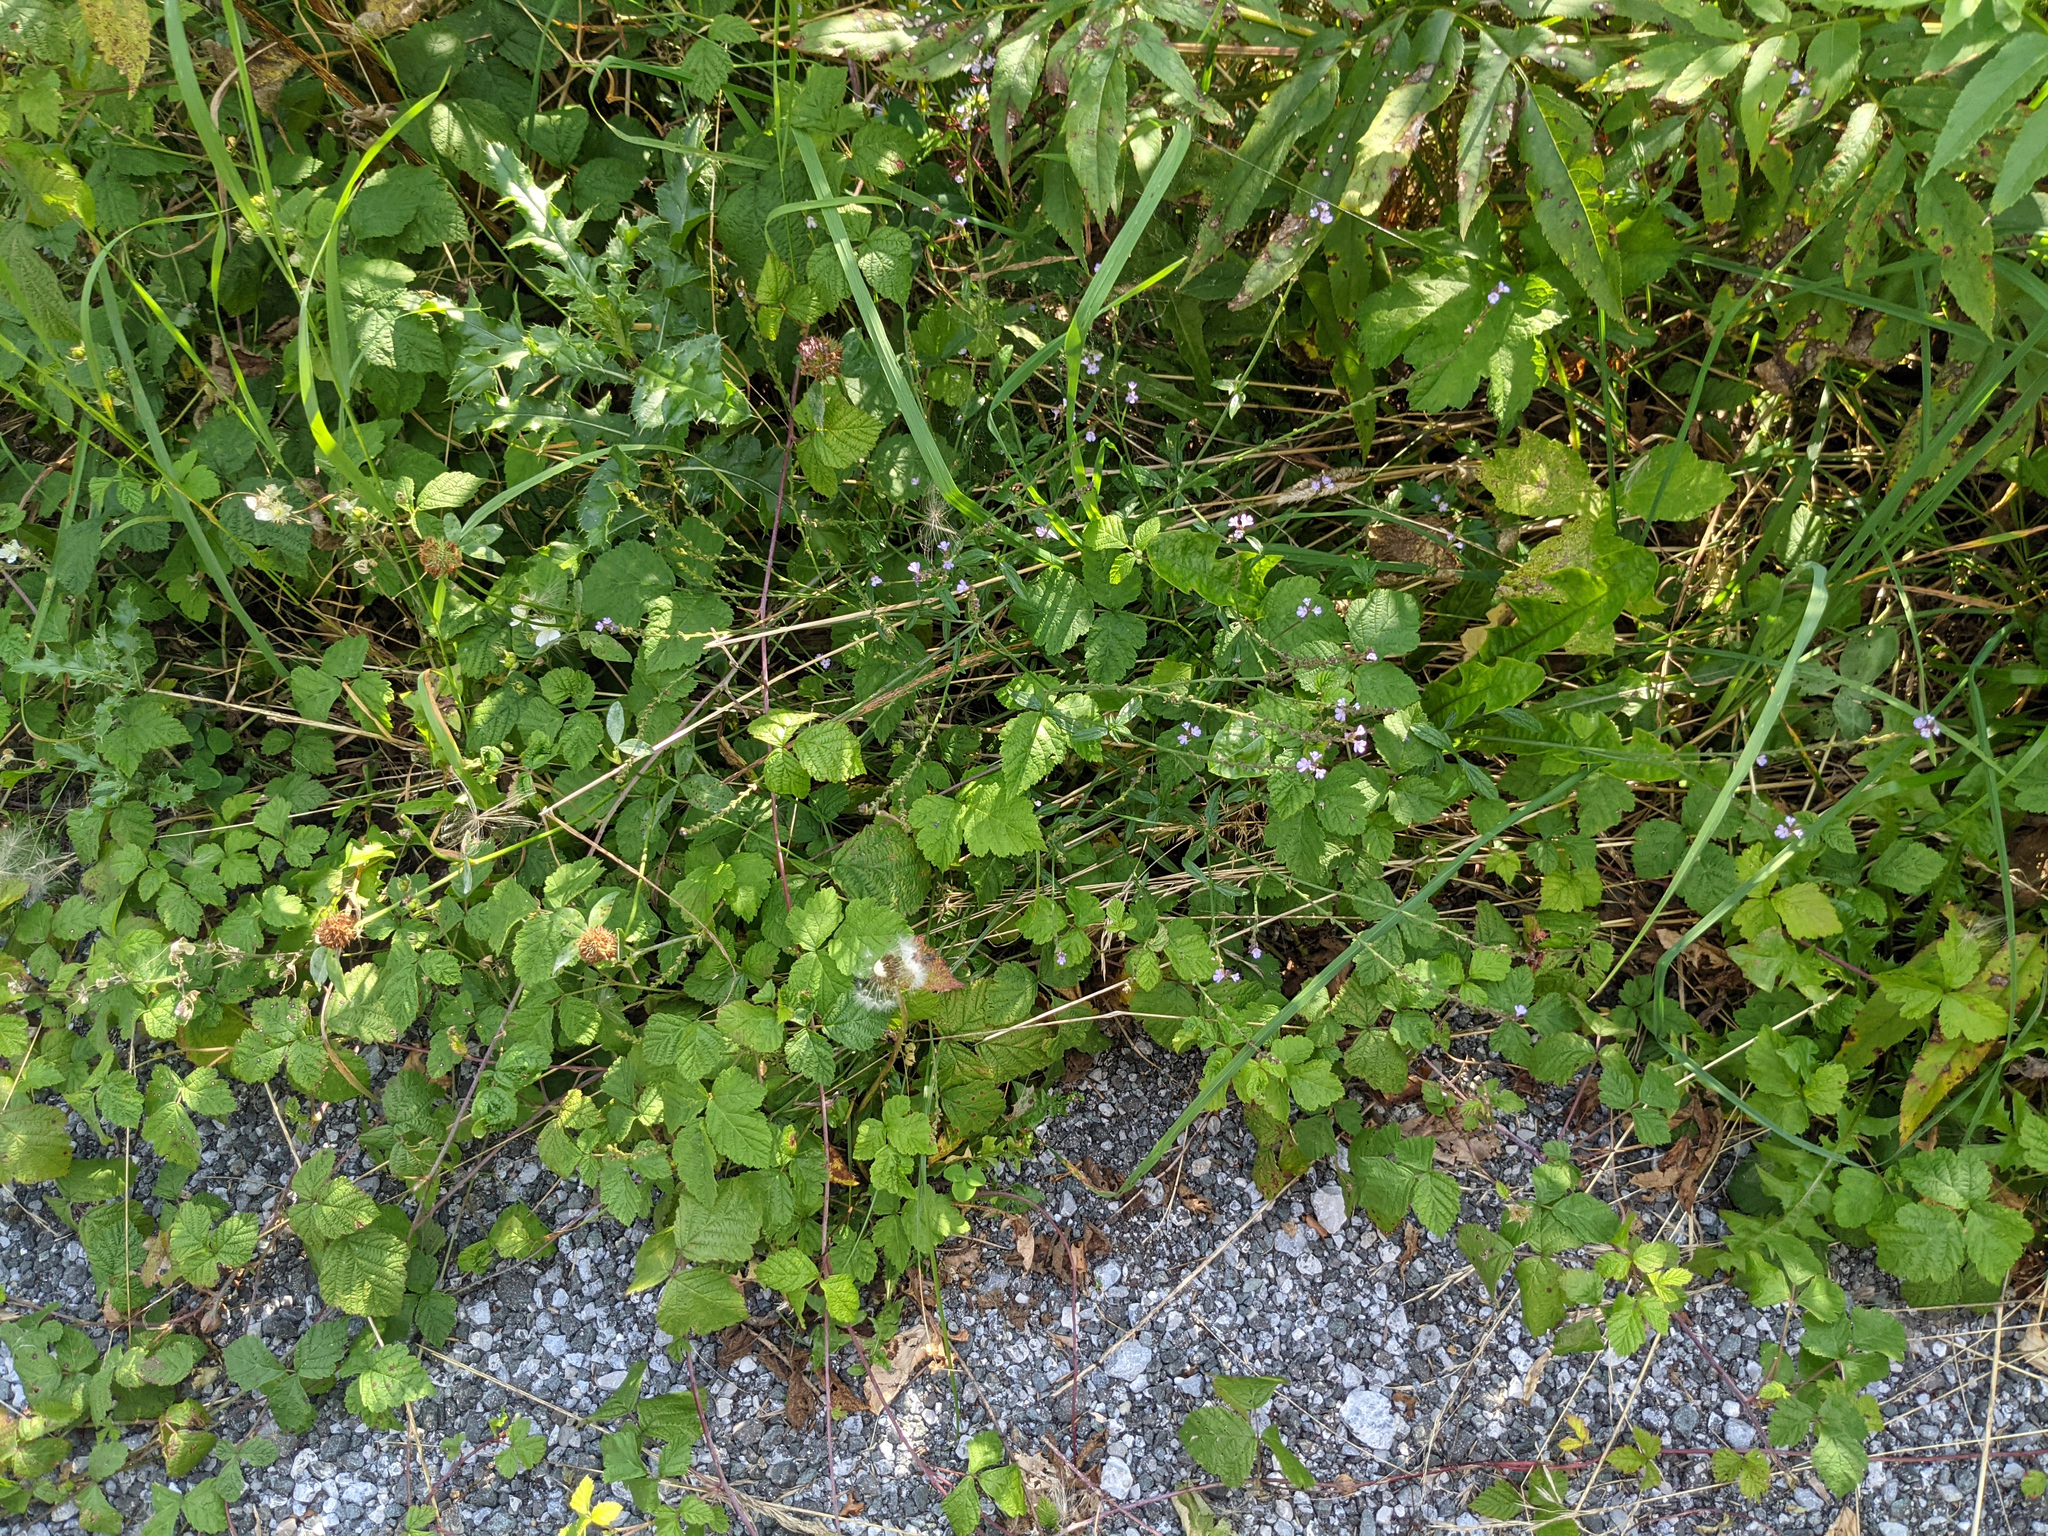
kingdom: Plantae
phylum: Tracheophyta
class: Magnoliopsida
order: Lamiales
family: Verbenaceae
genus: Verbena
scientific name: Verbena officinalis
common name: Vervain
